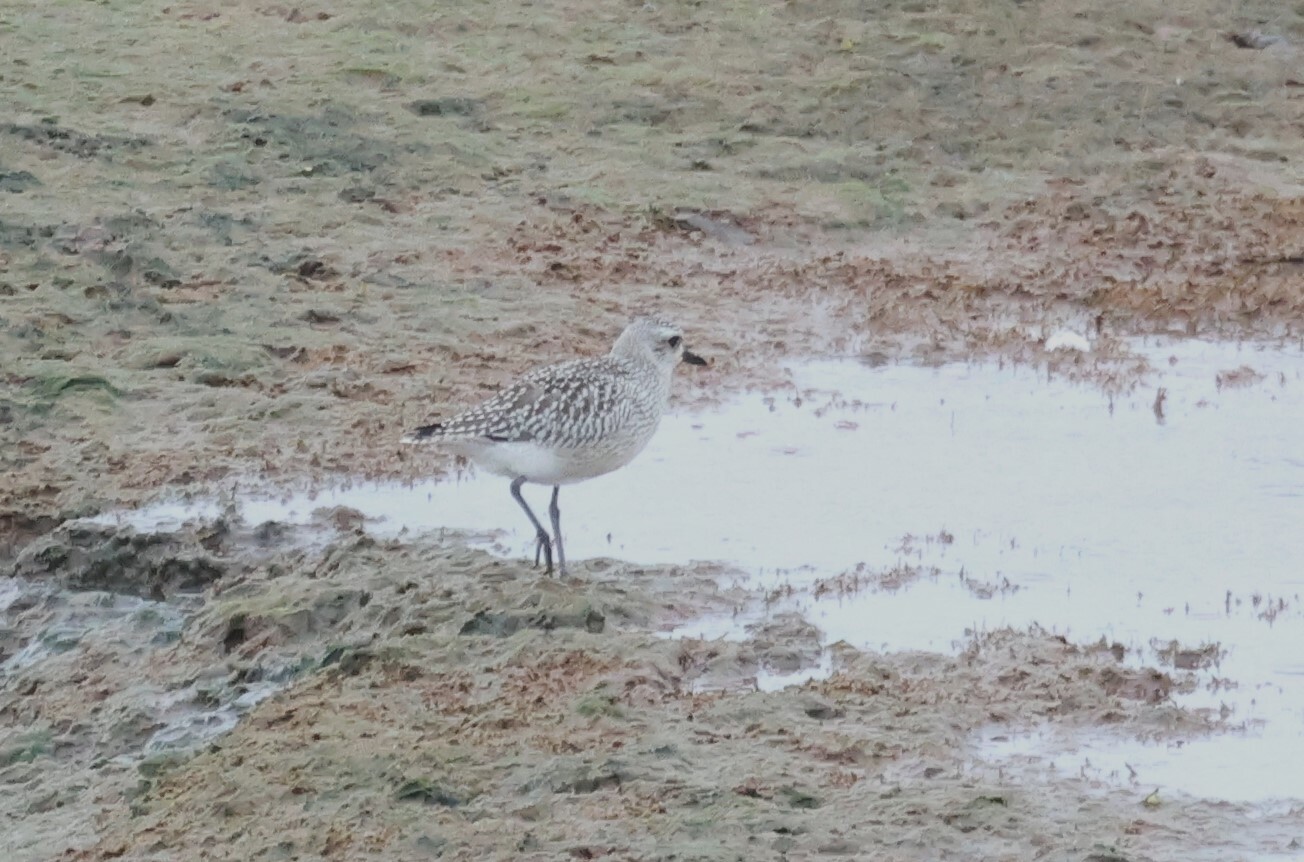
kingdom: Animalia
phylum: Chordata
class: Aves
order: Charadriiformes
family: Charadriidae
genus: Pluvialis
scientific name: Pluvialis squatarola
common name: Grey plover
